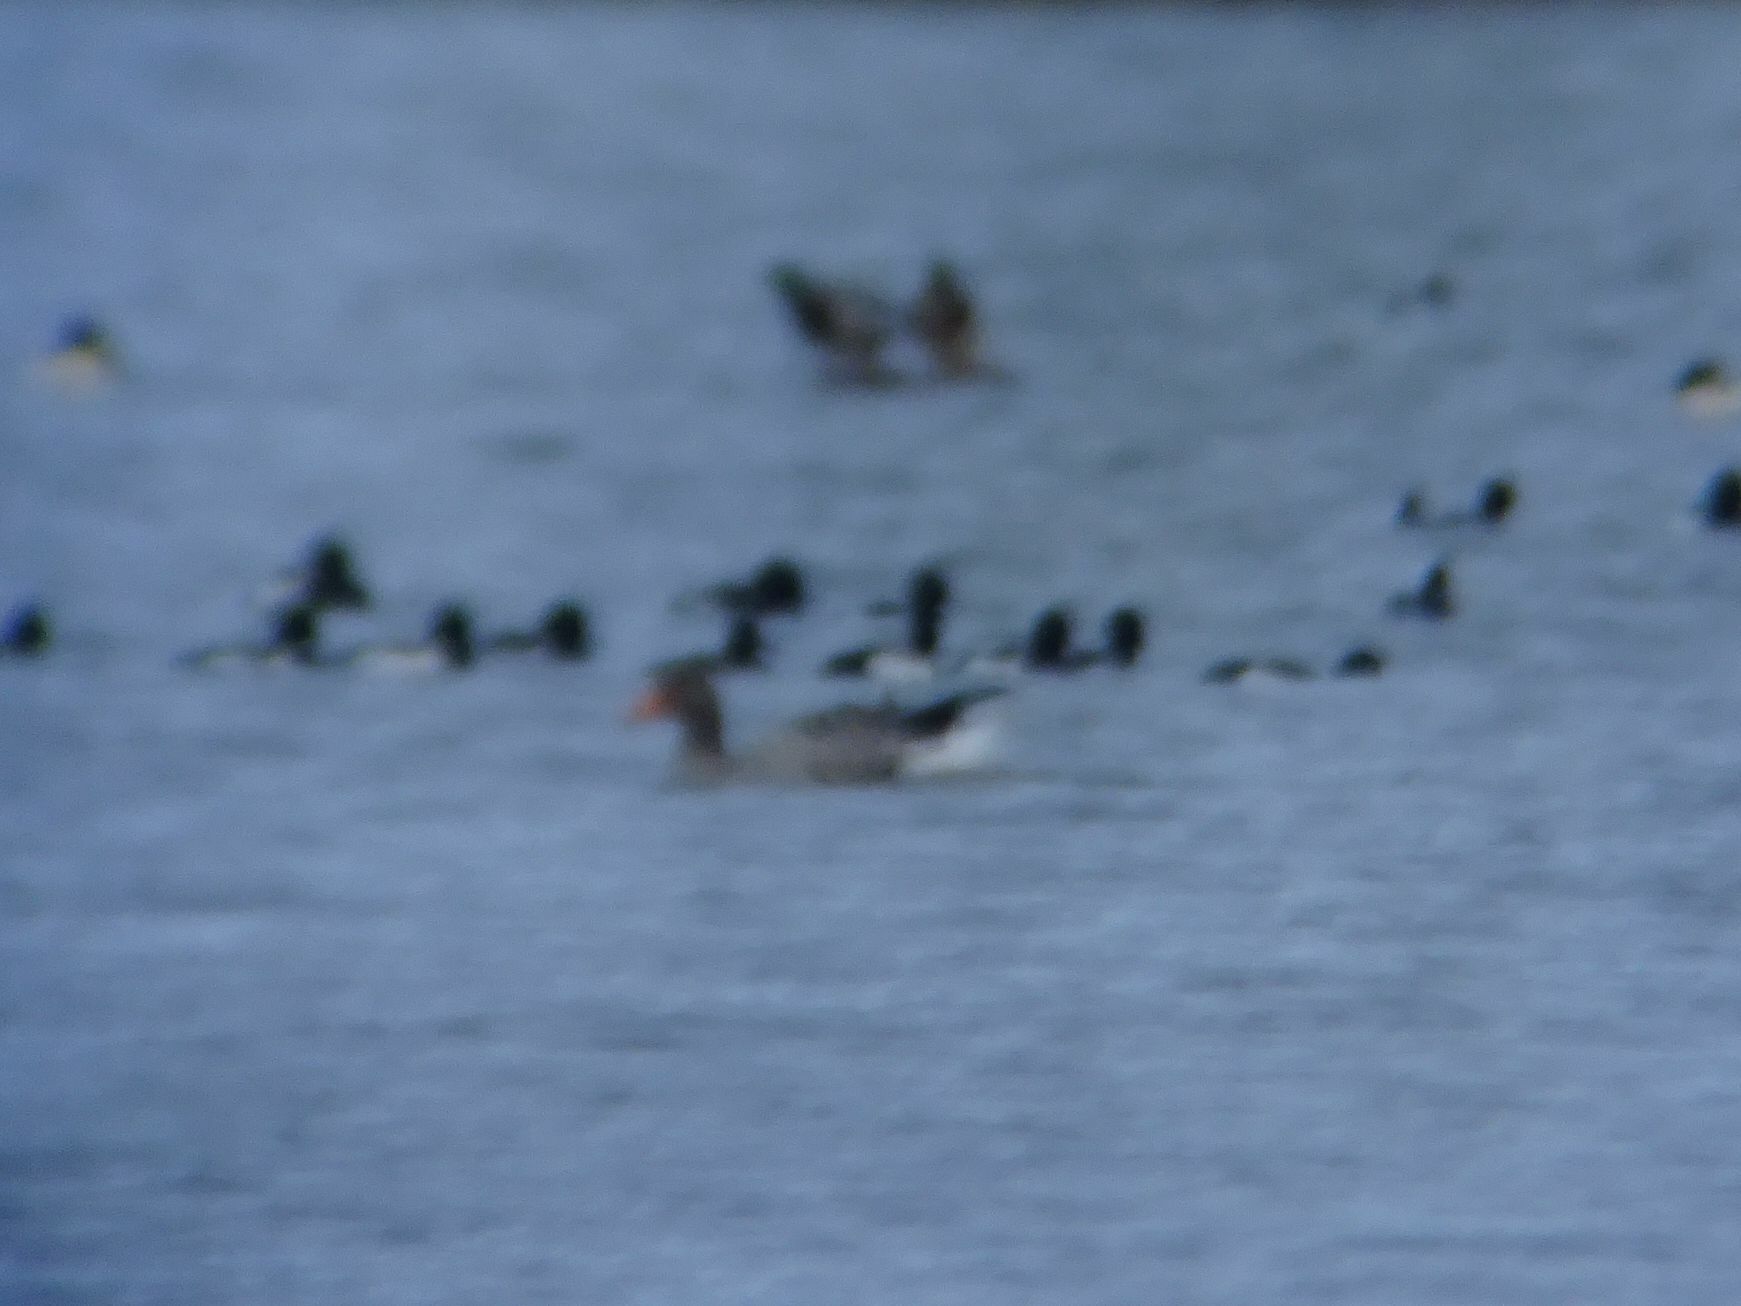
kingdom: Animalia
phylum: Chordata
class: Aves
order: Anseriformes
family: Anatidae
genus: Anser
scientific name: Anser anser
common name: Greylag goose
